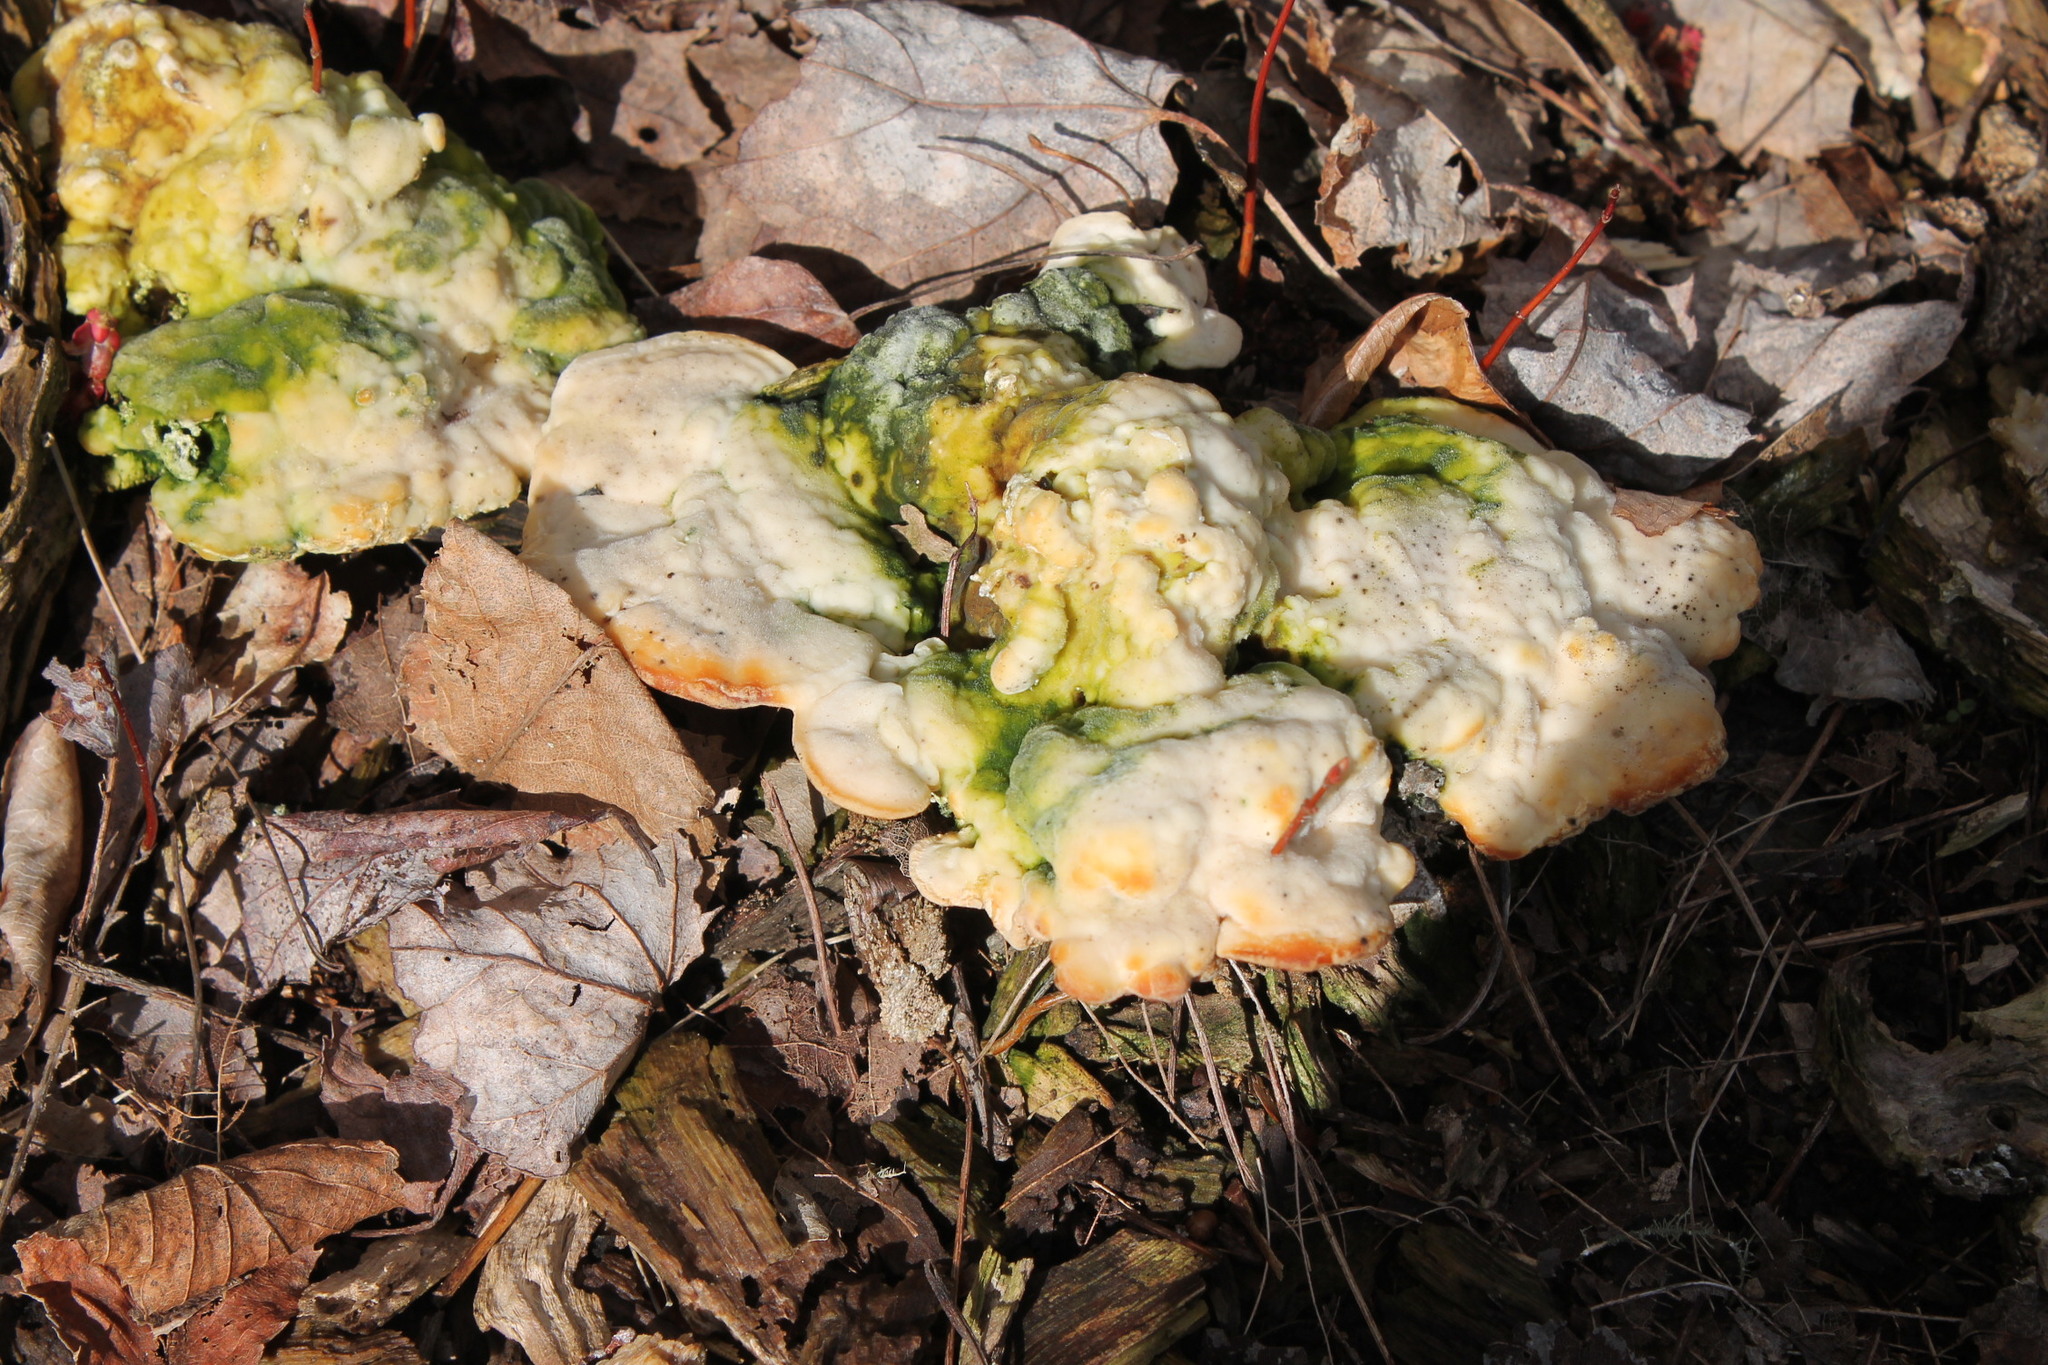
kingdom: Fungi
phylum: Basidiomycota
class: Agaricomycetes
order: Polyporales
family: Polyporaceae
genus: Trametes
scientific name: Trametes gibbosa
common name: Lumpy bracket
